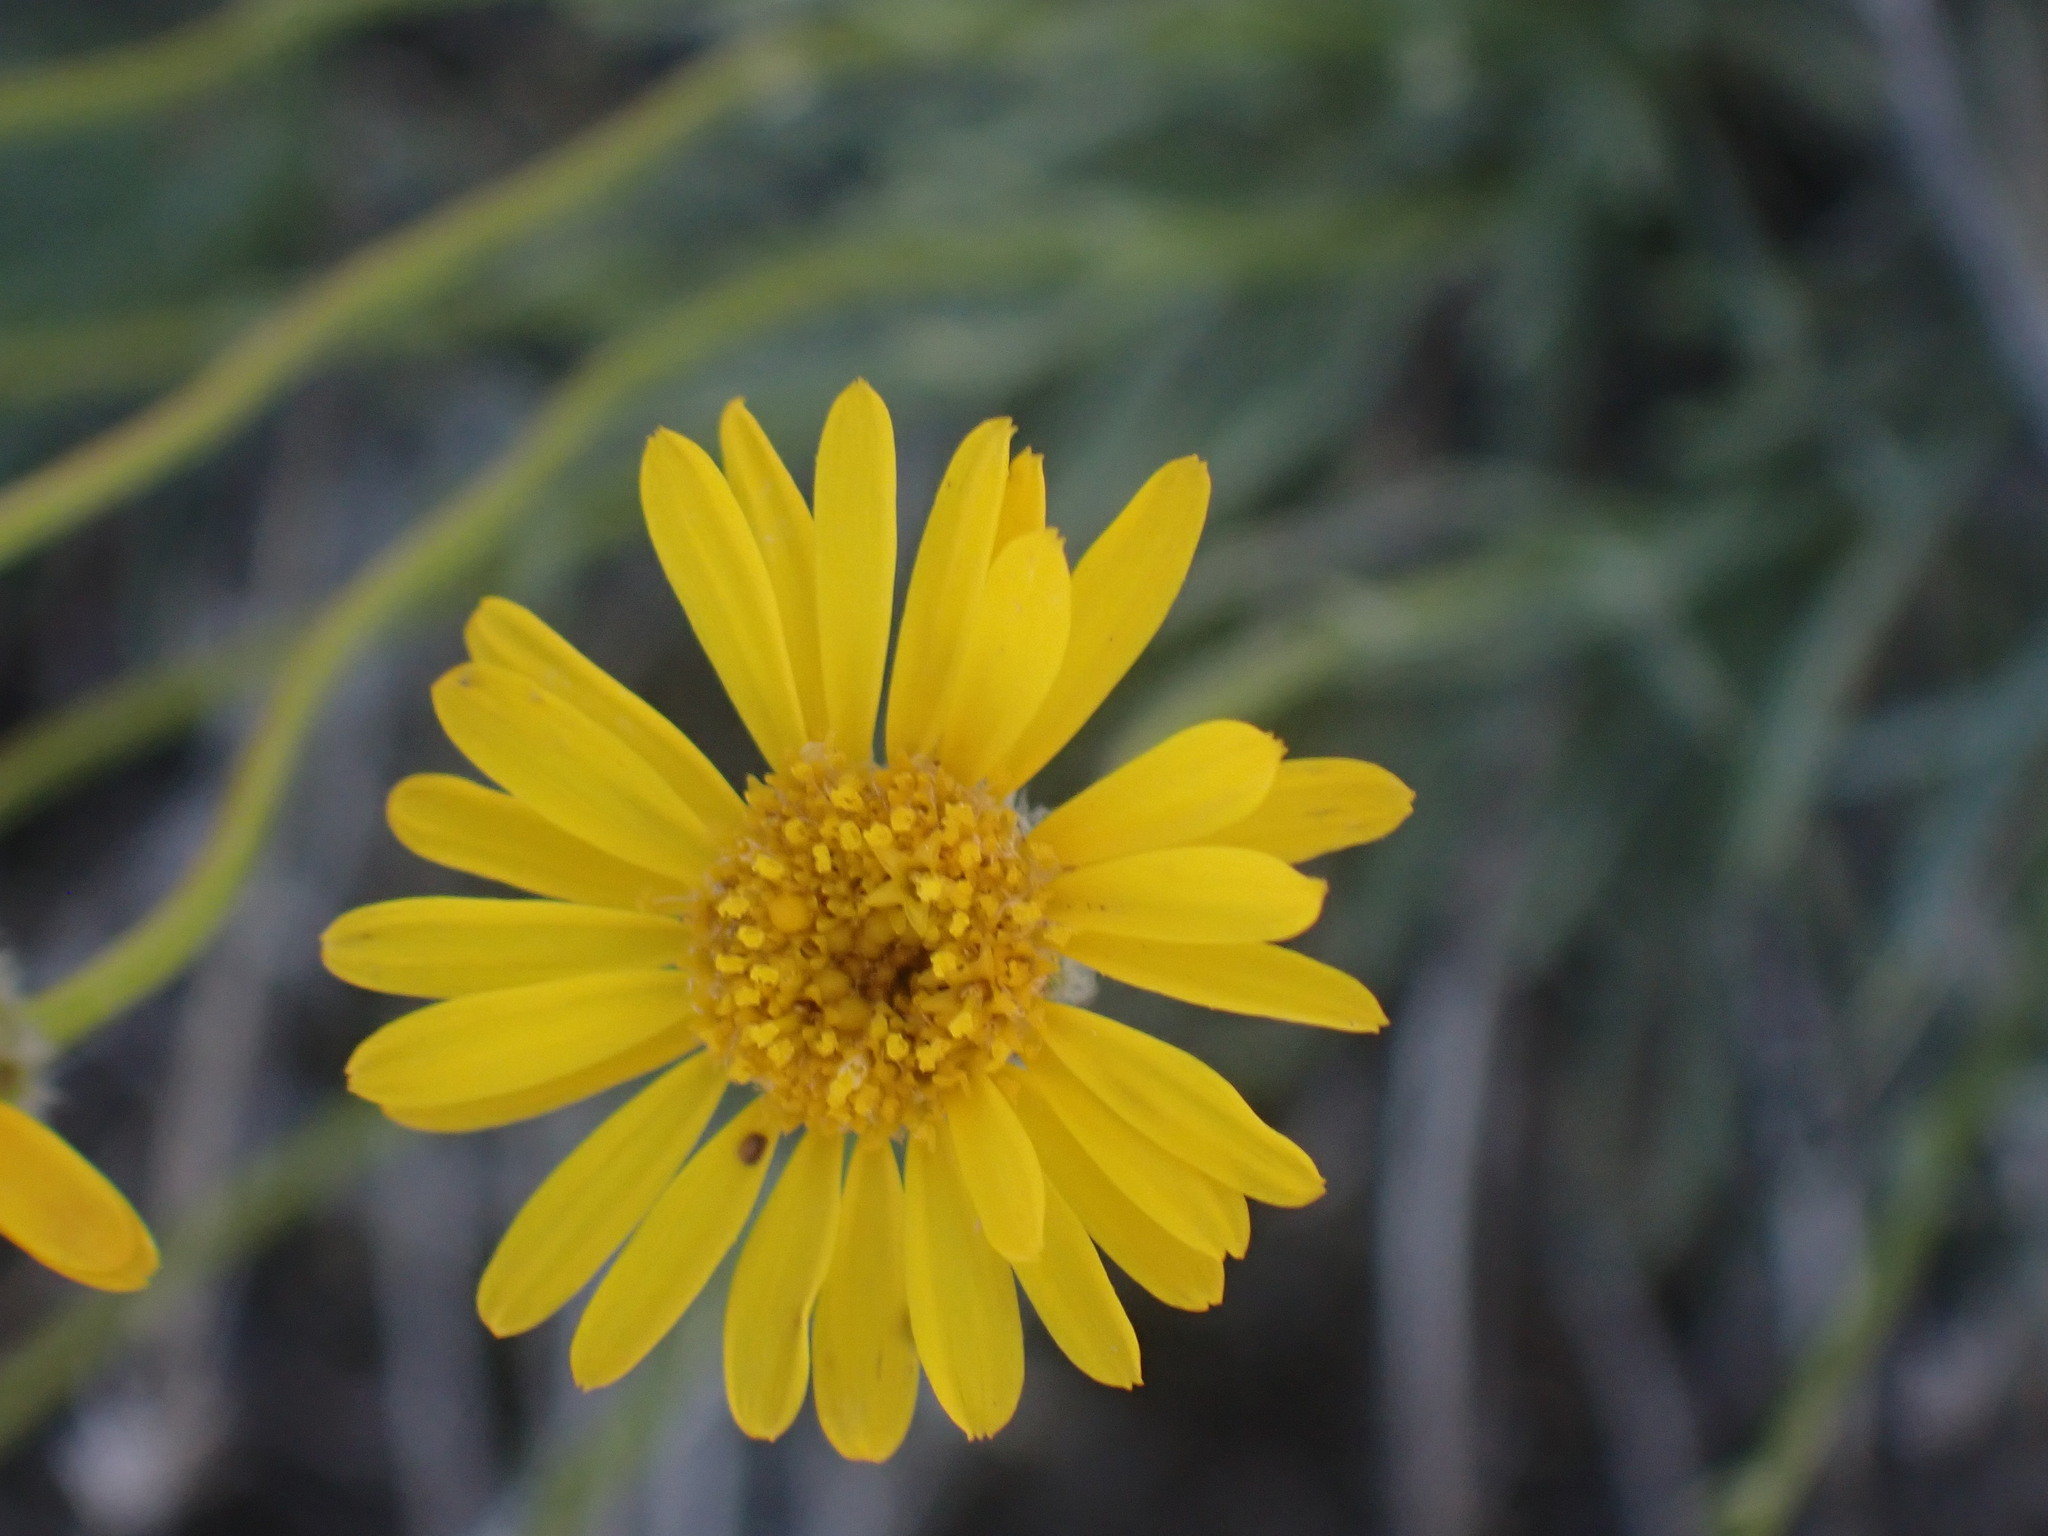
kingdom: Plantae
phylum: Tracheophyta
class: Magnoliopsida
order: Asterales
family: Asteraceae
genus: Erigeron
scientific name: Erigeron linearis
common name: Desert yellow fleabane
